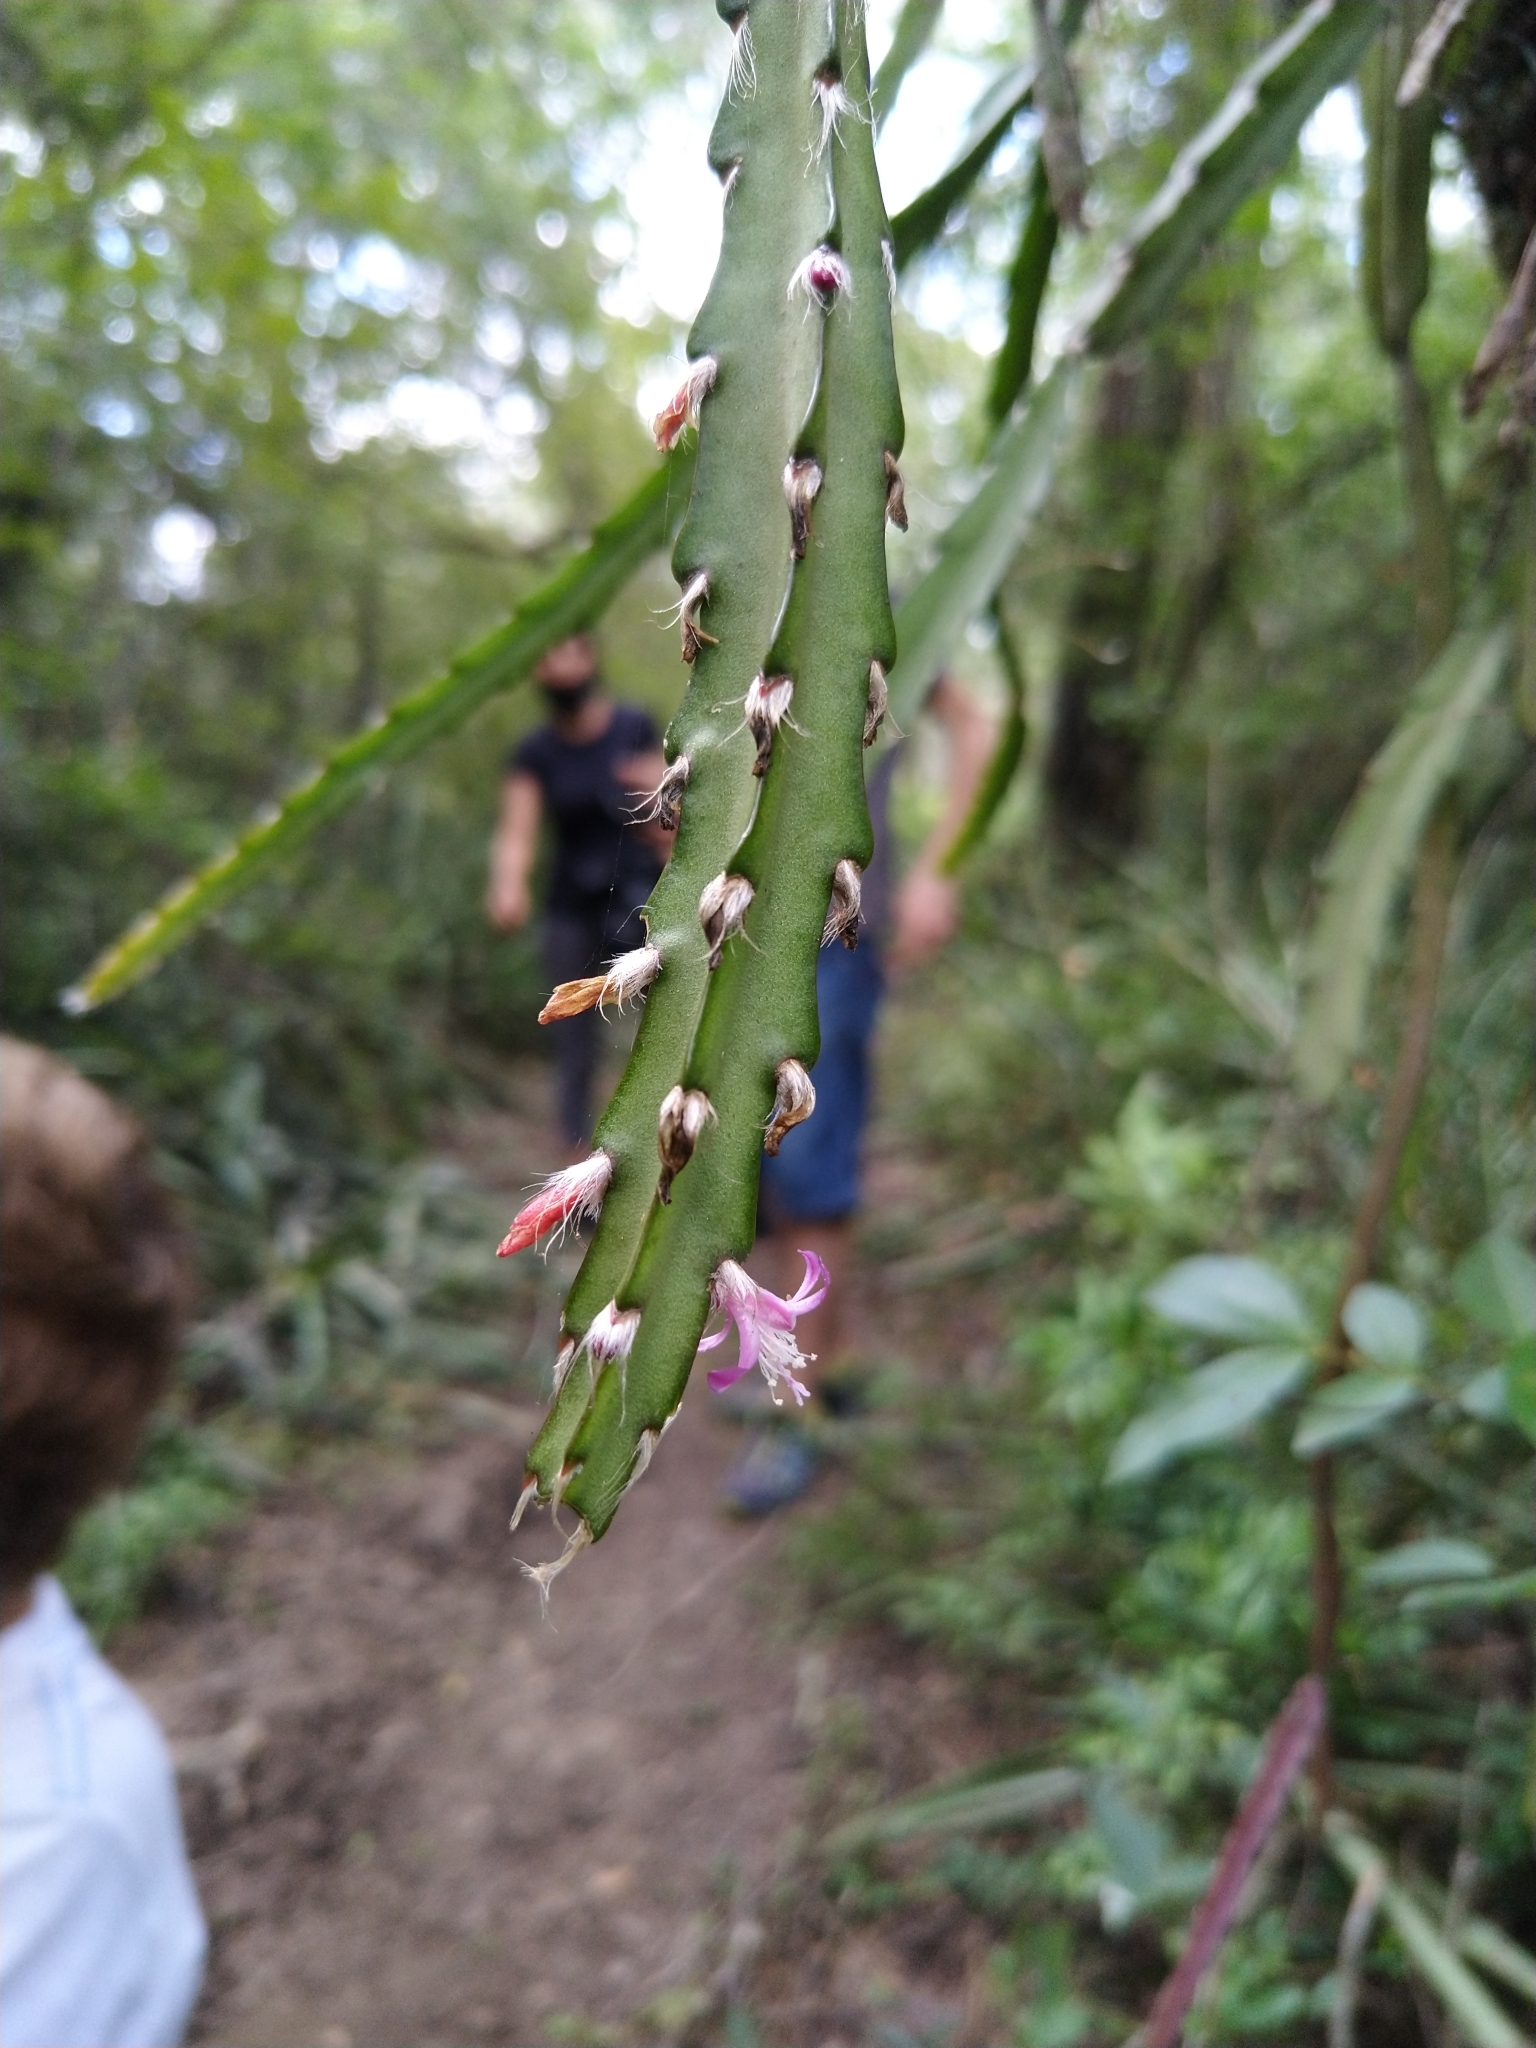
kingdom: Plantae
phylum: Tracheophyta
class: Magnoliopsida
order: Caryophyllales
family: Cactaceae
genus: Lepismium
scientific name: Lepismium cruciforme
